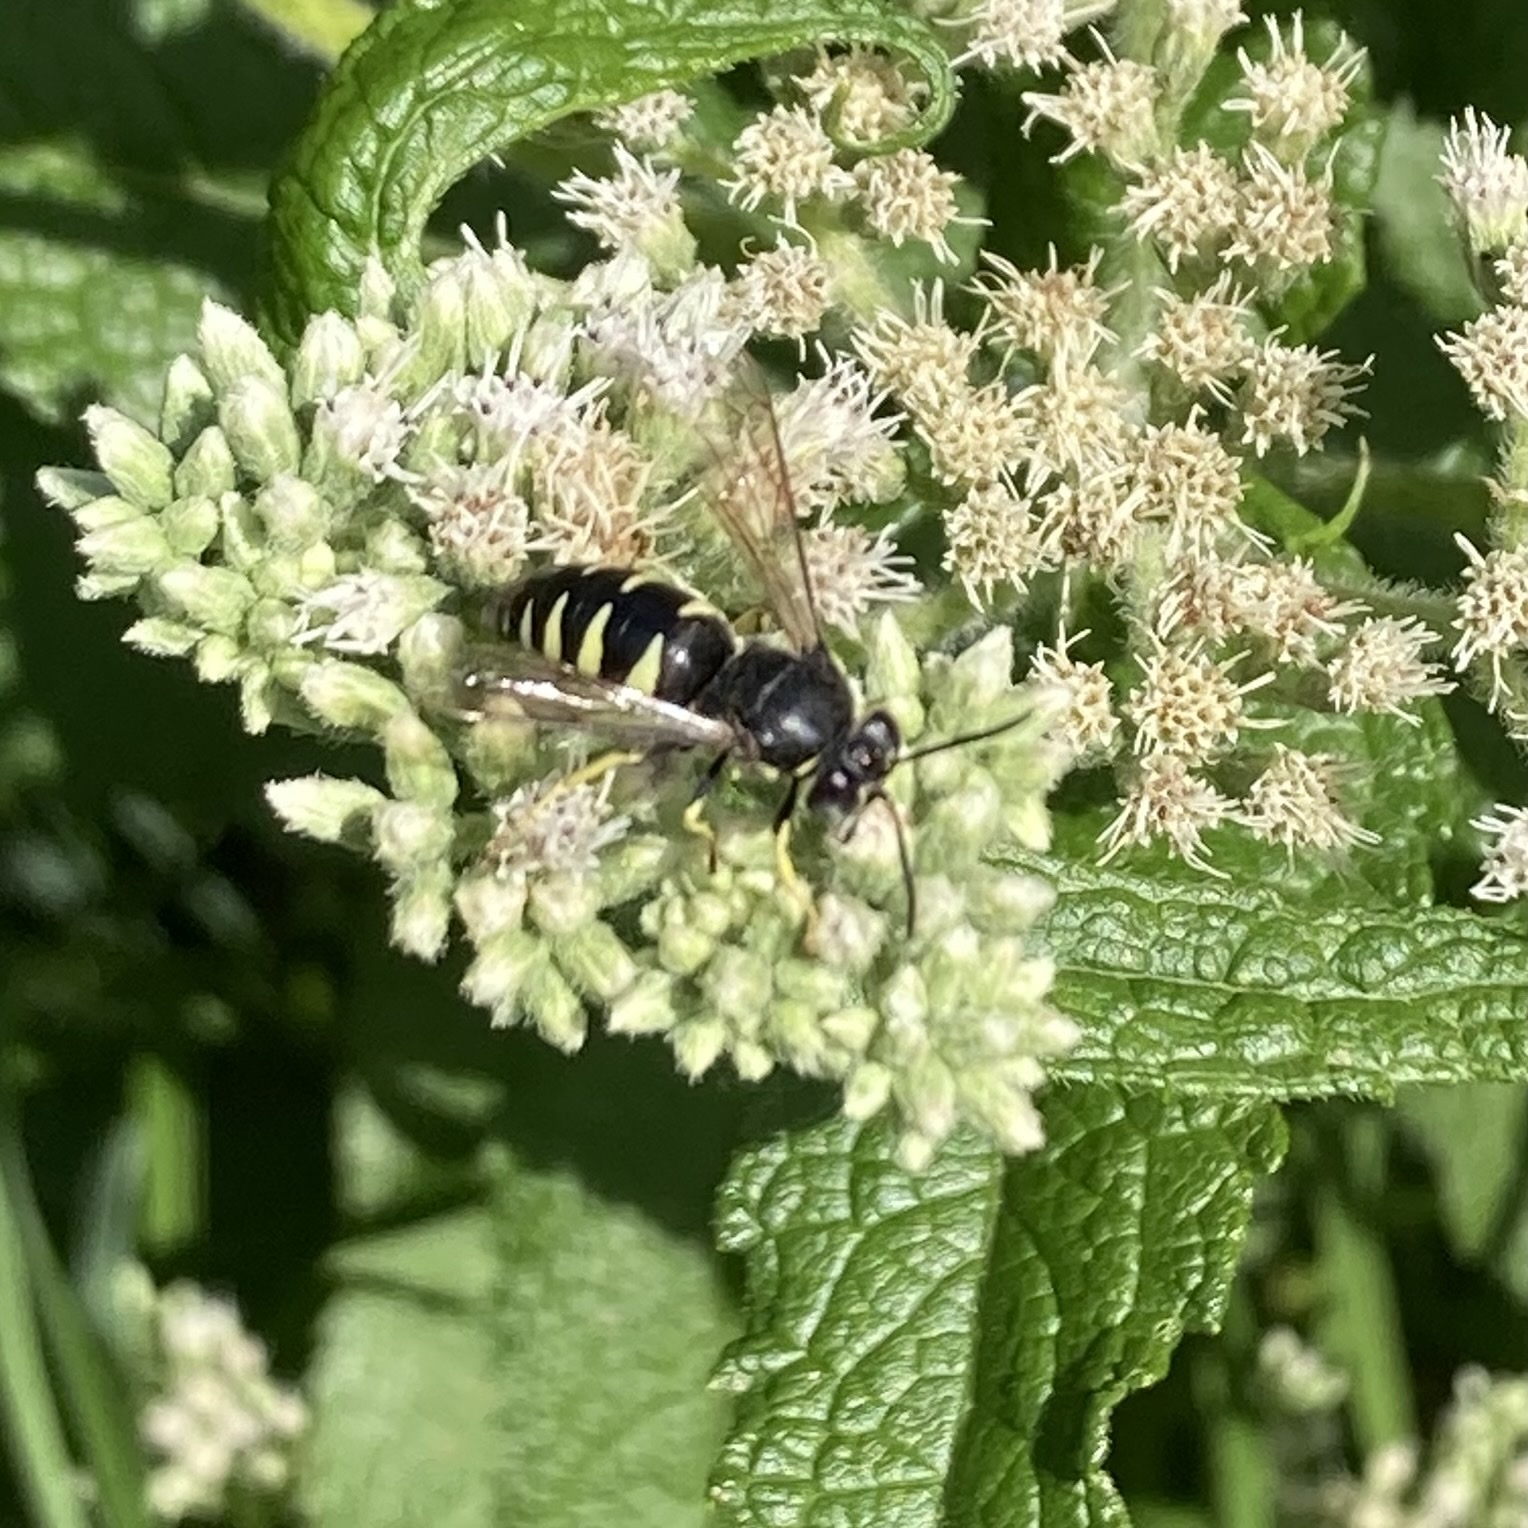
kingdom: Animalia
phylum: Arthropoda
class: Insecta
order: Hymenoptera
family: Crabronidae
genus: Bicyrtes
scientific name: Bicyrtes quadrifasciatus
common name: Four-banded stink bug hunter wasp
